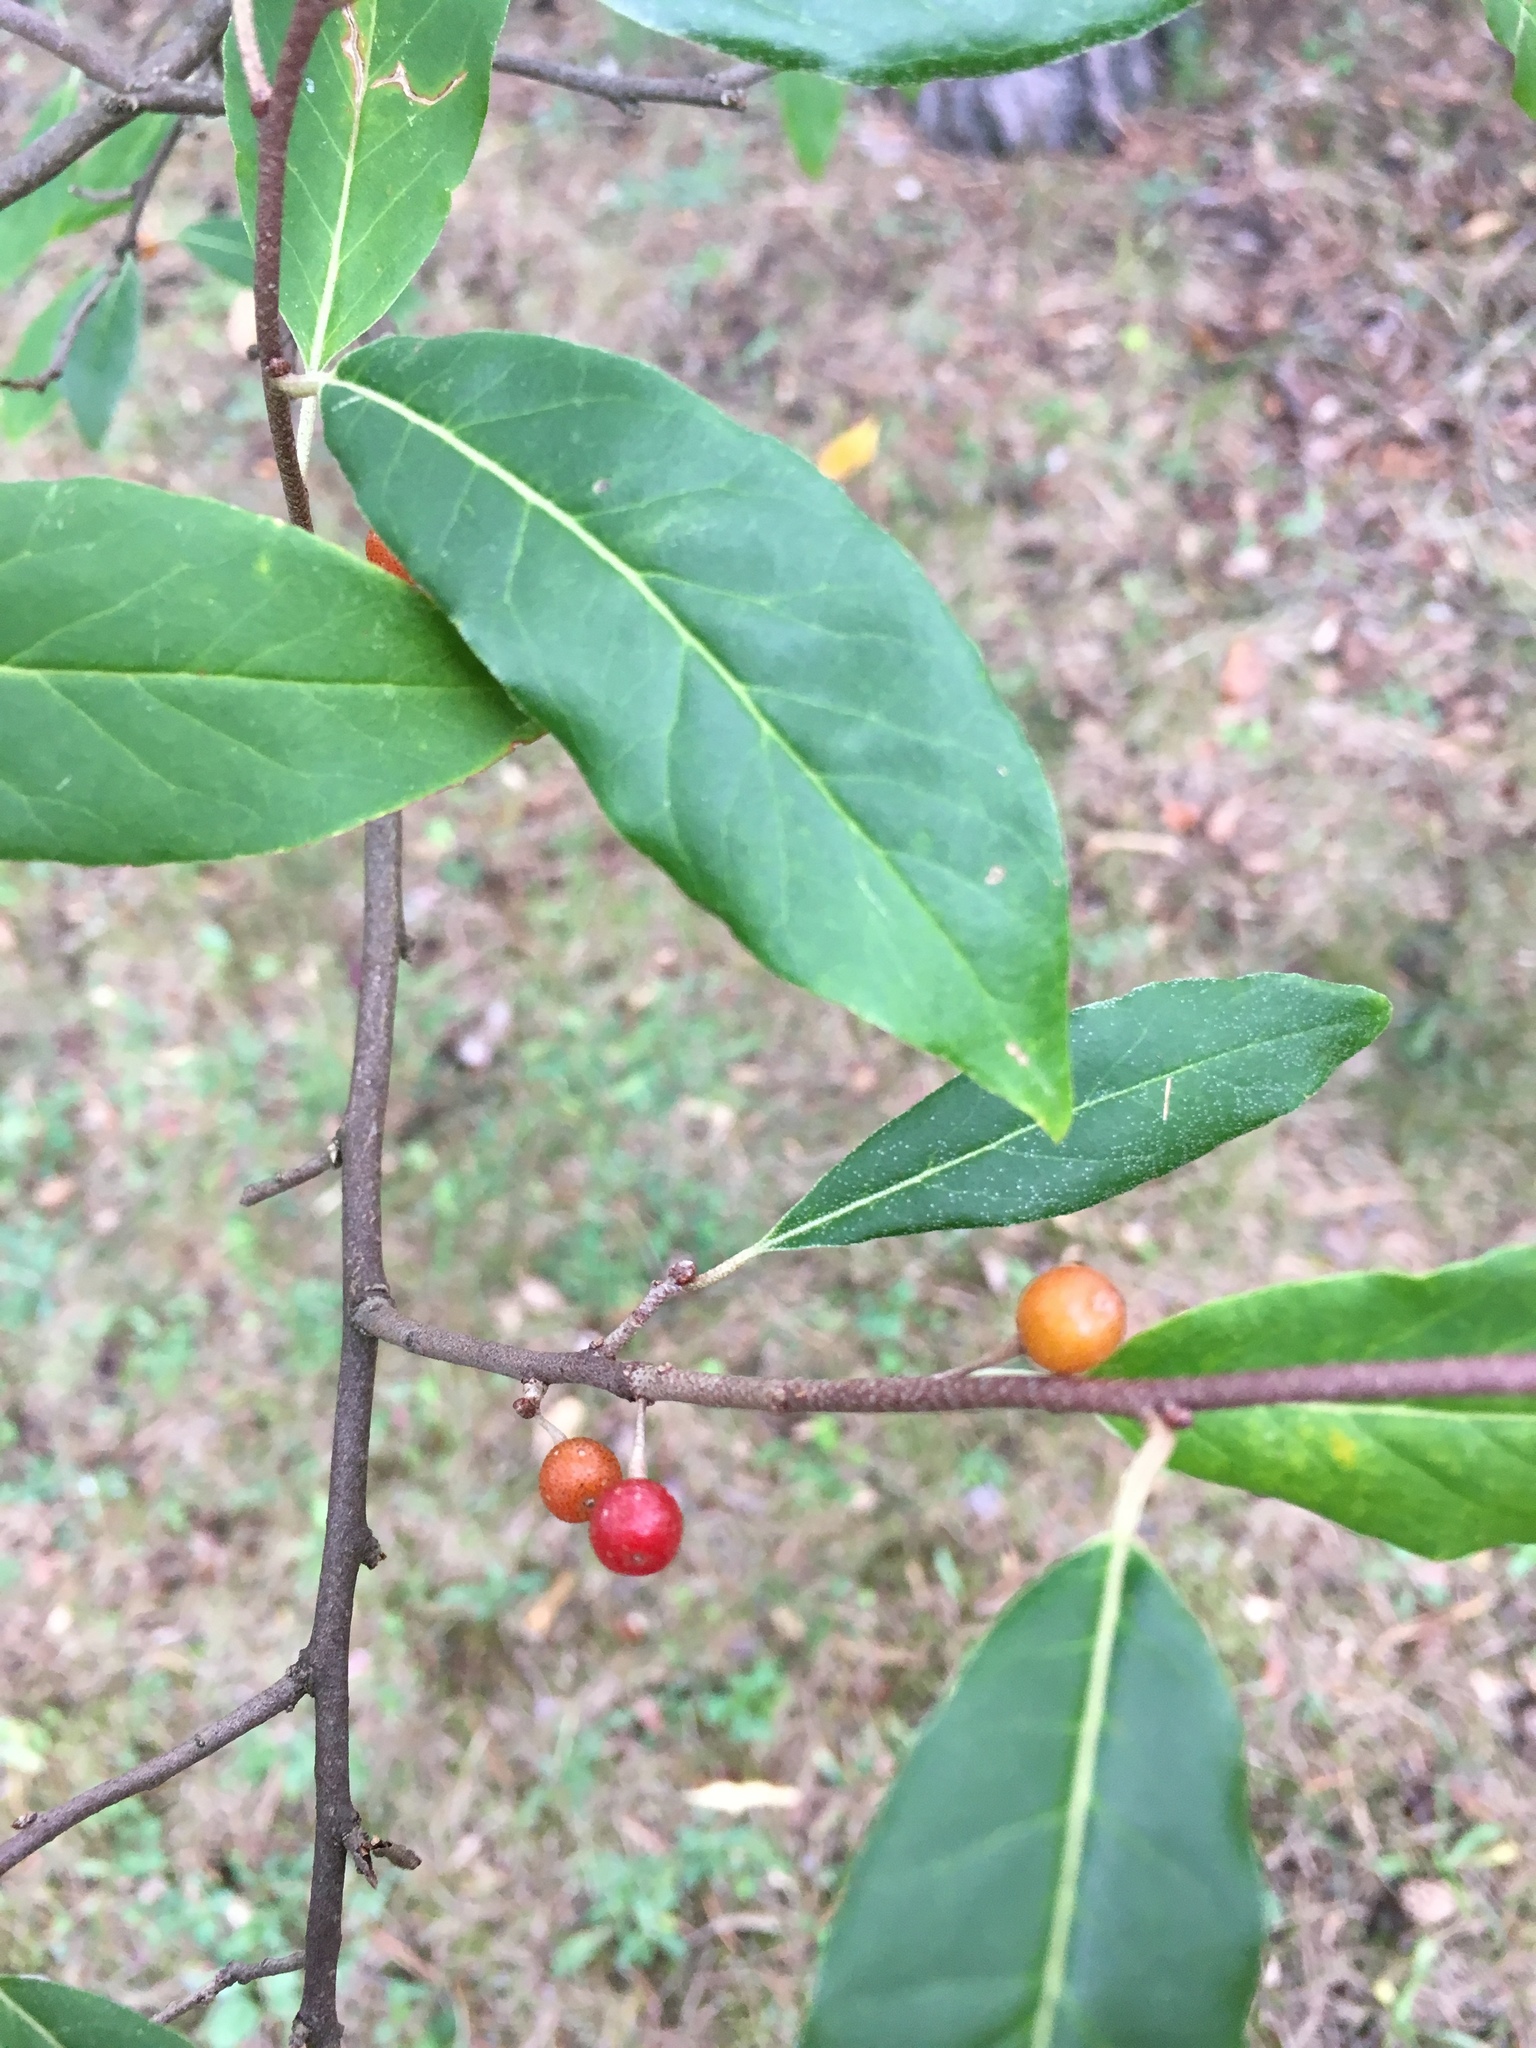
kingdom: Plantae
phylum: Tracheophyta
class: Magnoliopsida
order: Rosales
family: Elaeagnaceae
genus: Elaeagnus
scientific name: Elaeagnus umbellata
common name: Autumn olive
